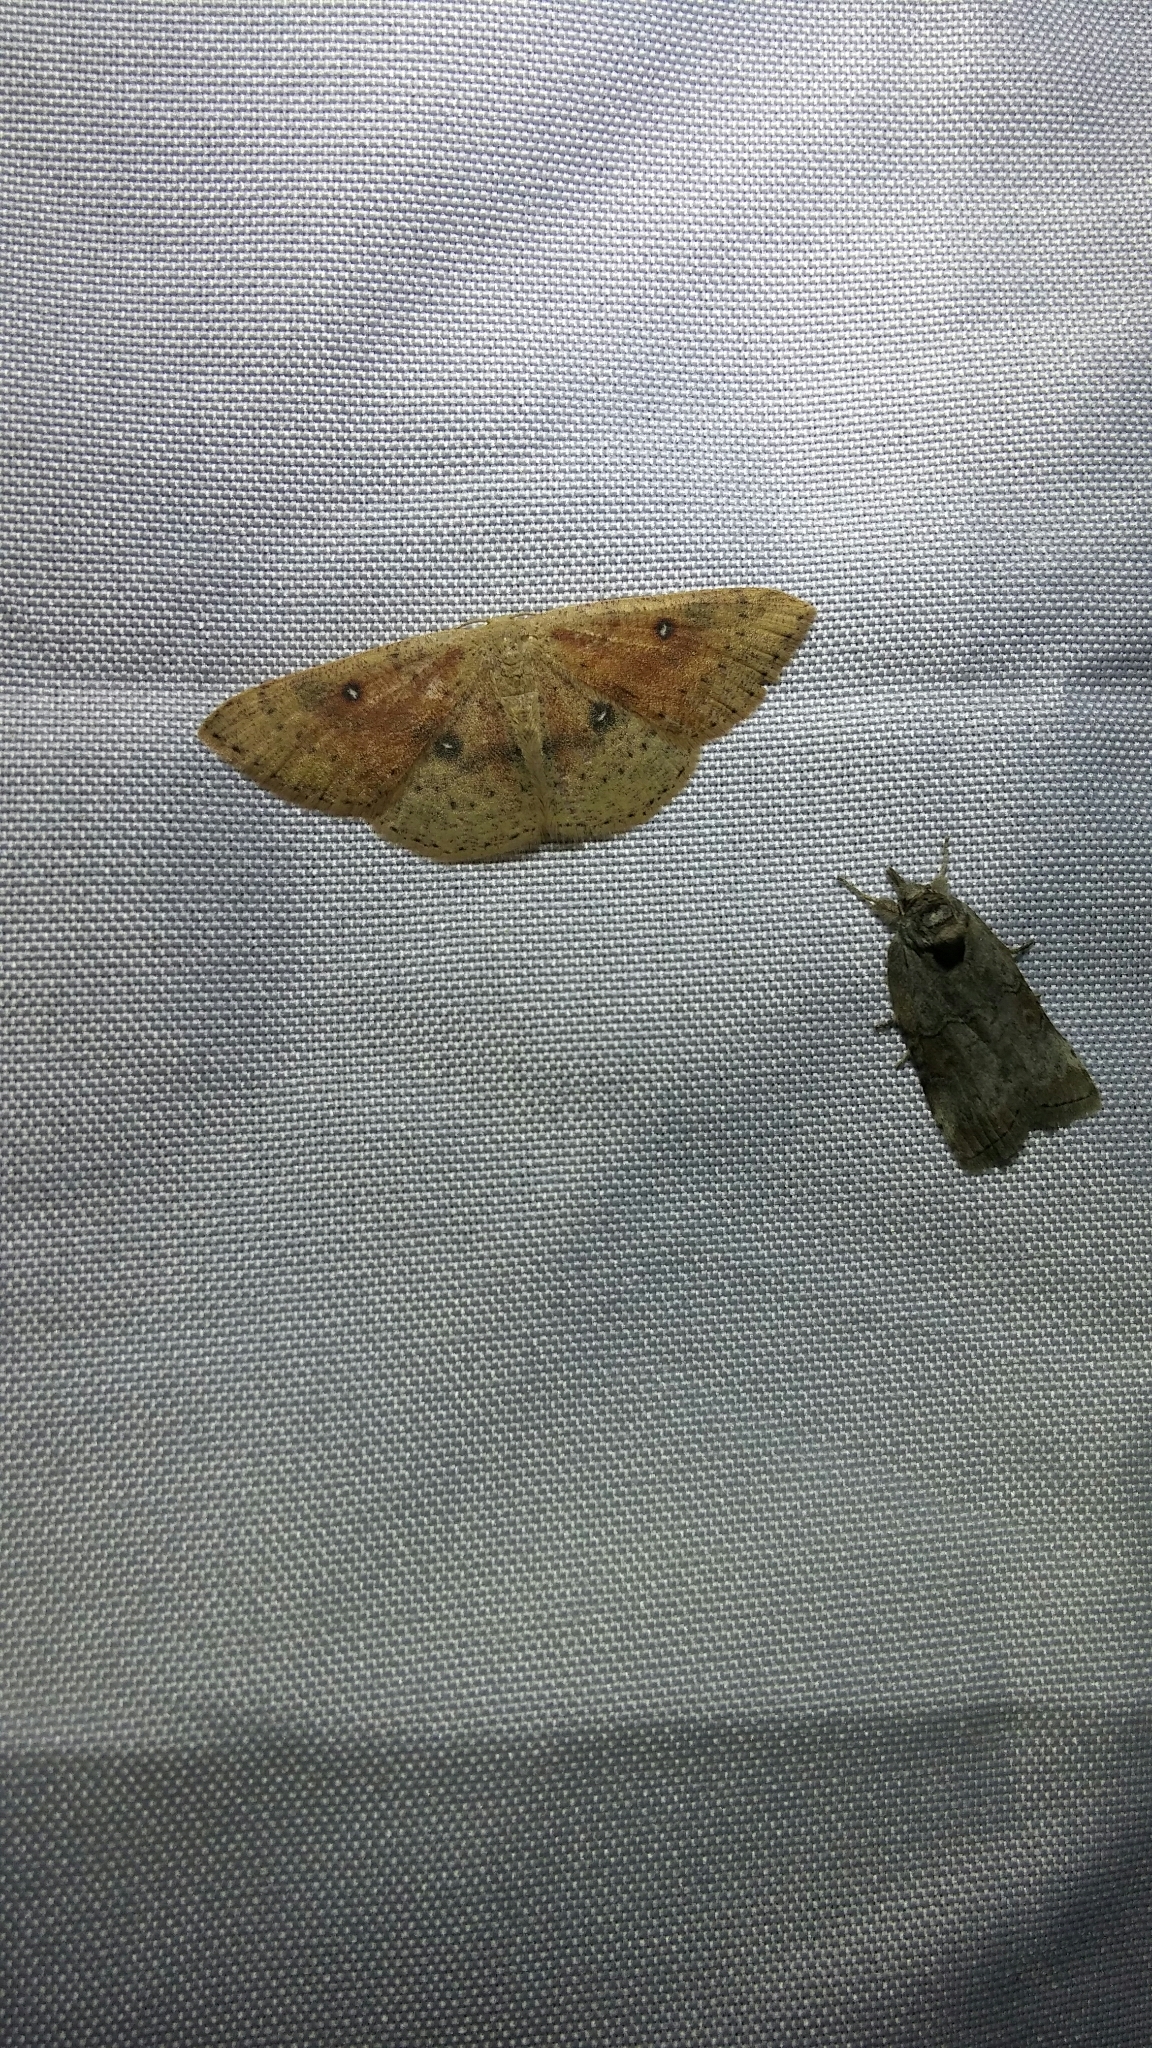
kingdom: Animalia
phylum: Arthropoda
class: Insecta
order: Lepidoptera
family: Geometridae
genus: Cyclophora
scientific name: Cyclophora dataria
